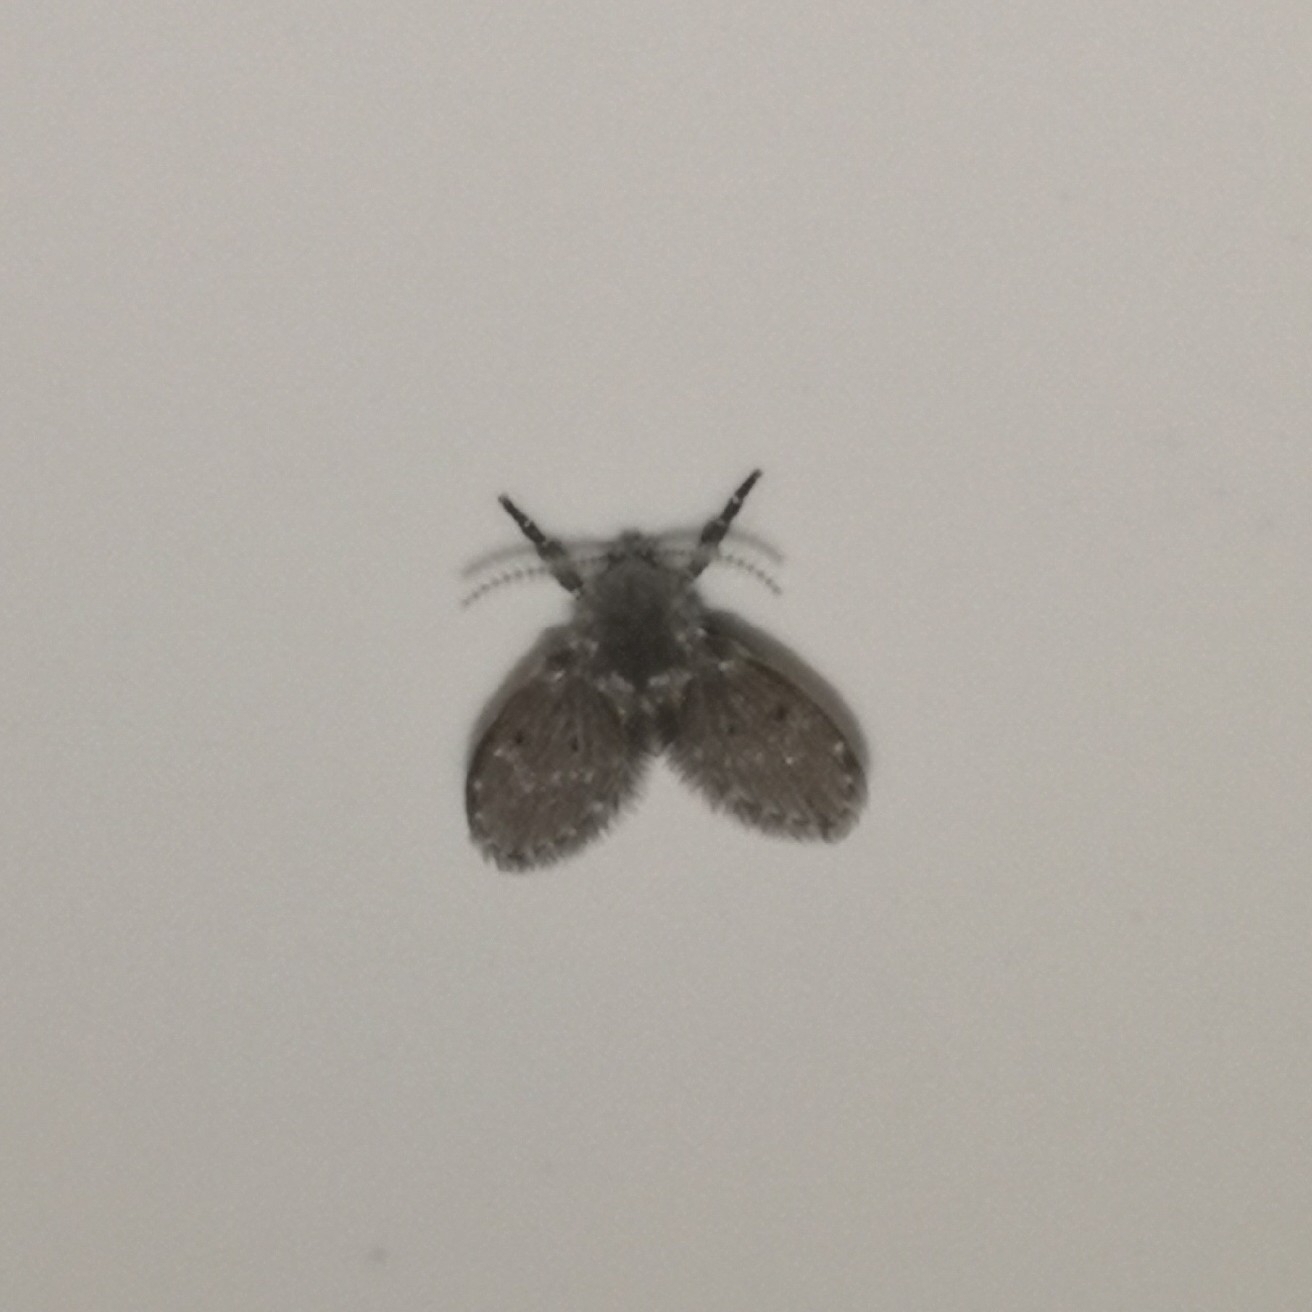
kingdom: Animalia
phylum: Arthropoda
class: Insecta
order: Diptera
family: Psychodidae
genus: Clogmia
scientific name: Clogmia albipunctatus
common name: White-spotted moth fly
